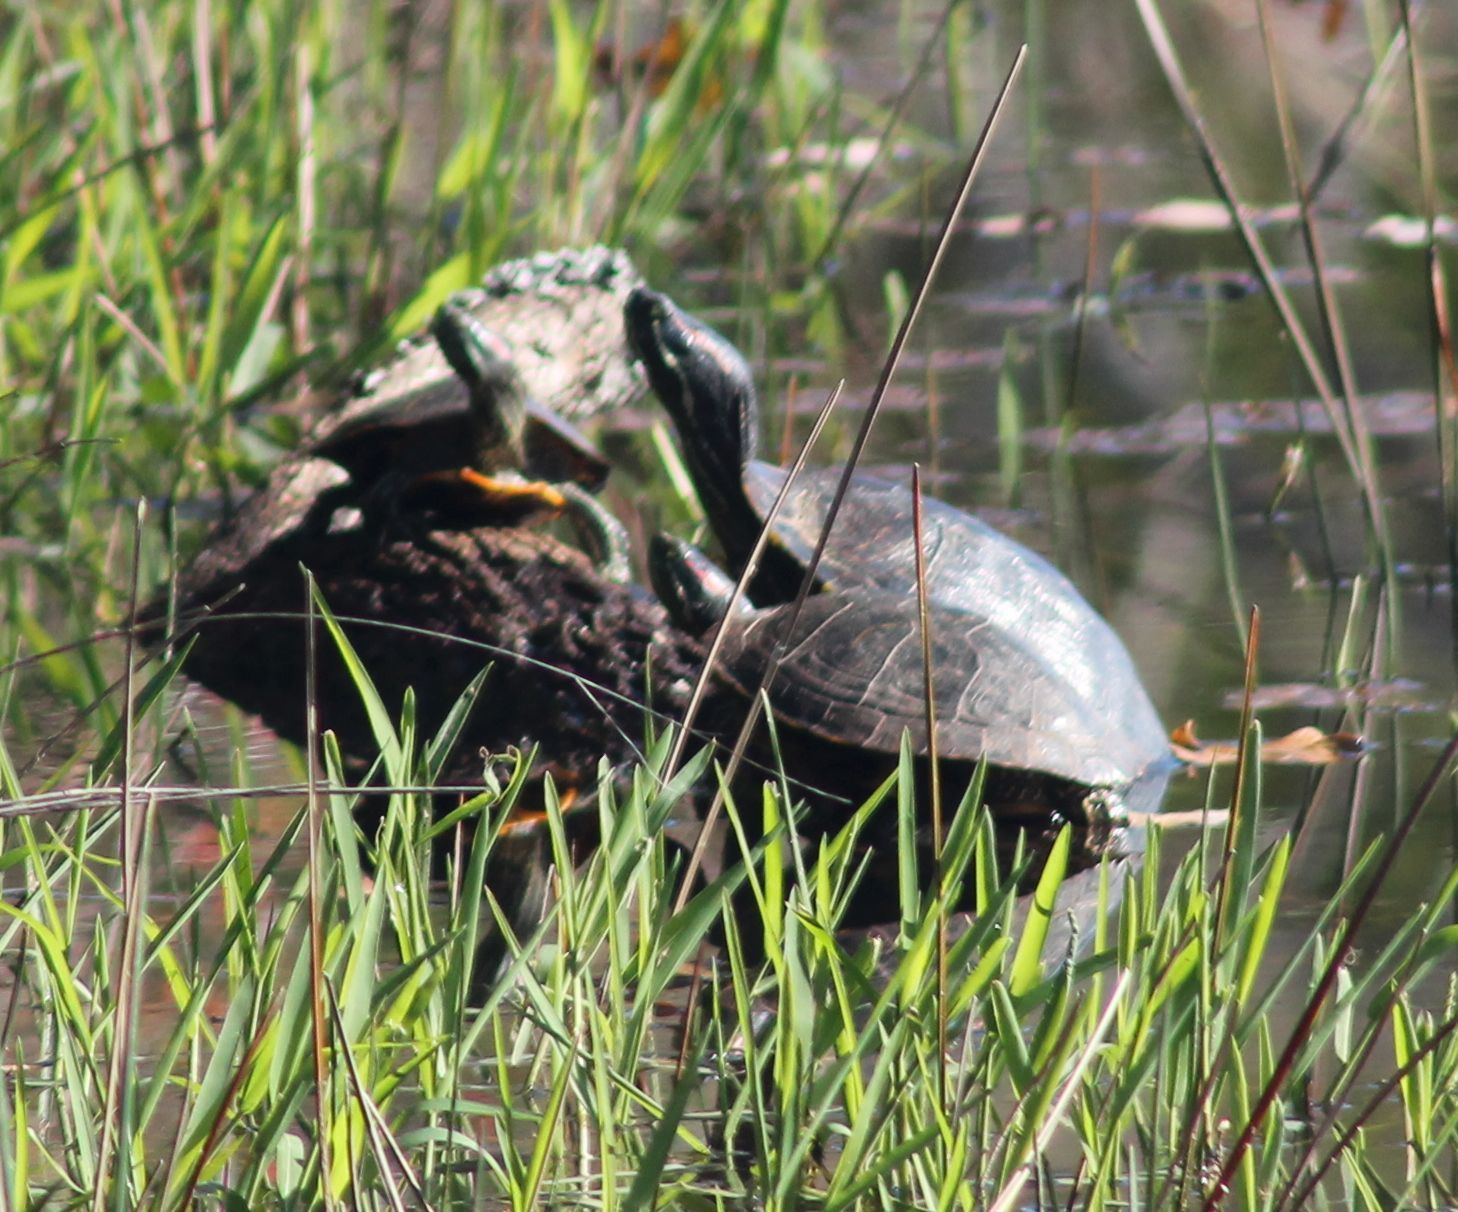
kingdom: Animalia
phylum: Chordata
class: Testudines
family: Emydidae
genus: Trachemys
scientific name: Trachemys scripta
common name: Slider
